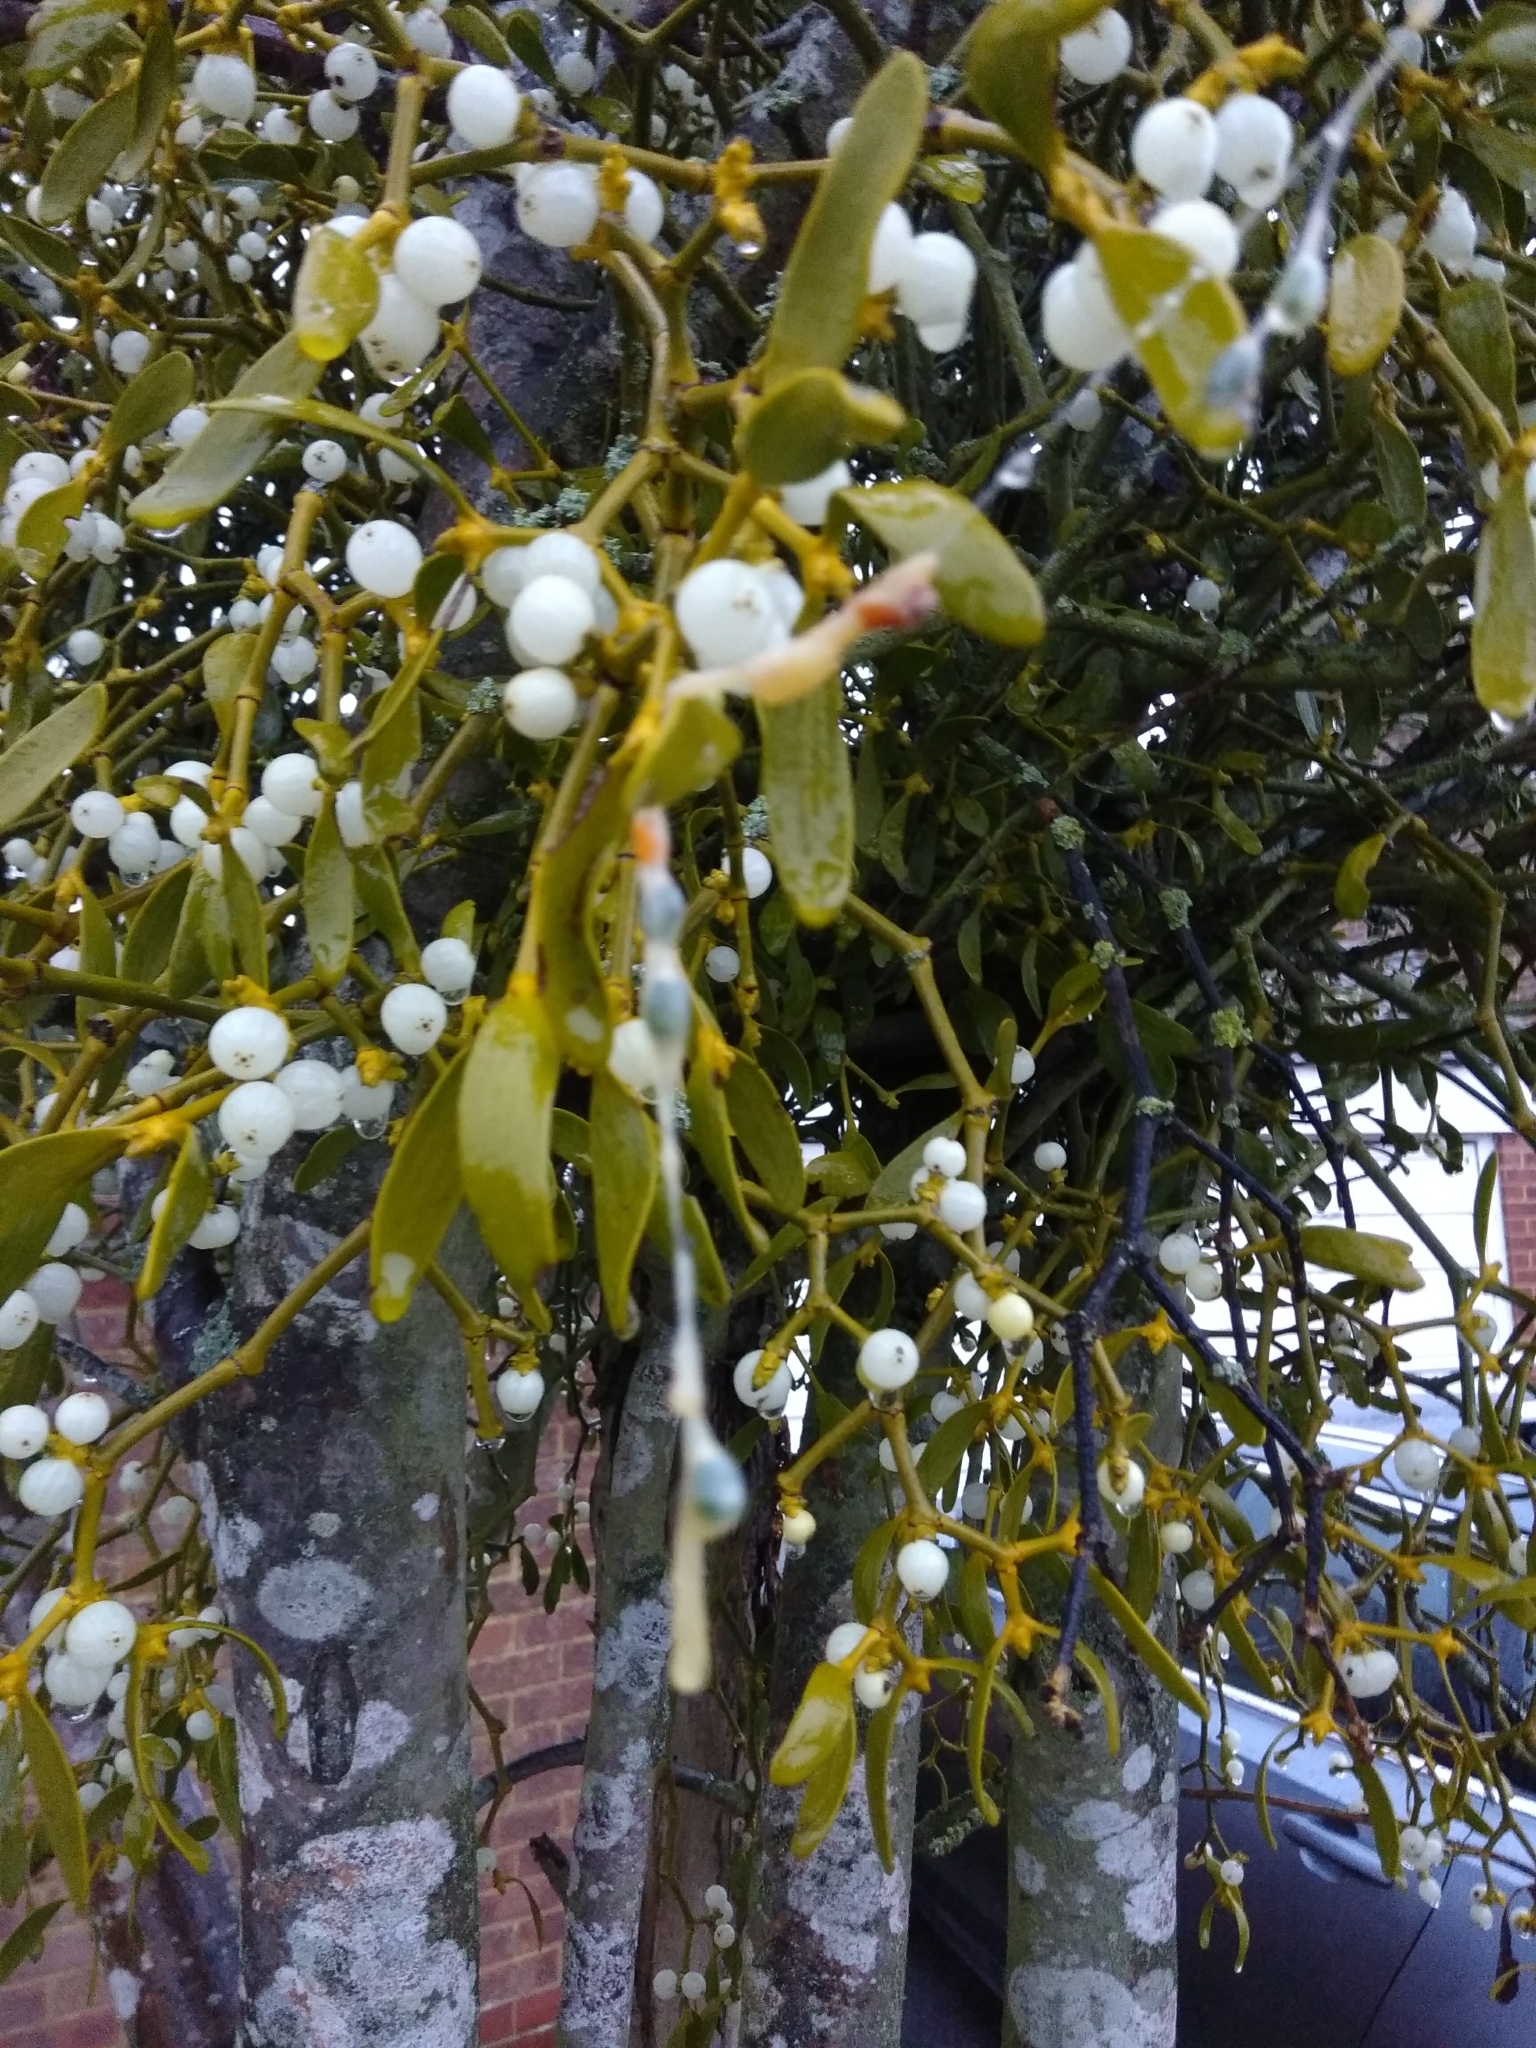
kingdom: Plantae
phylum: Tracheophyta
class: Magnoliopsida
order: Santalales
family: Viscaceae
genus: Viscum
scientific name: Viscum album
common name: Mistletoe
